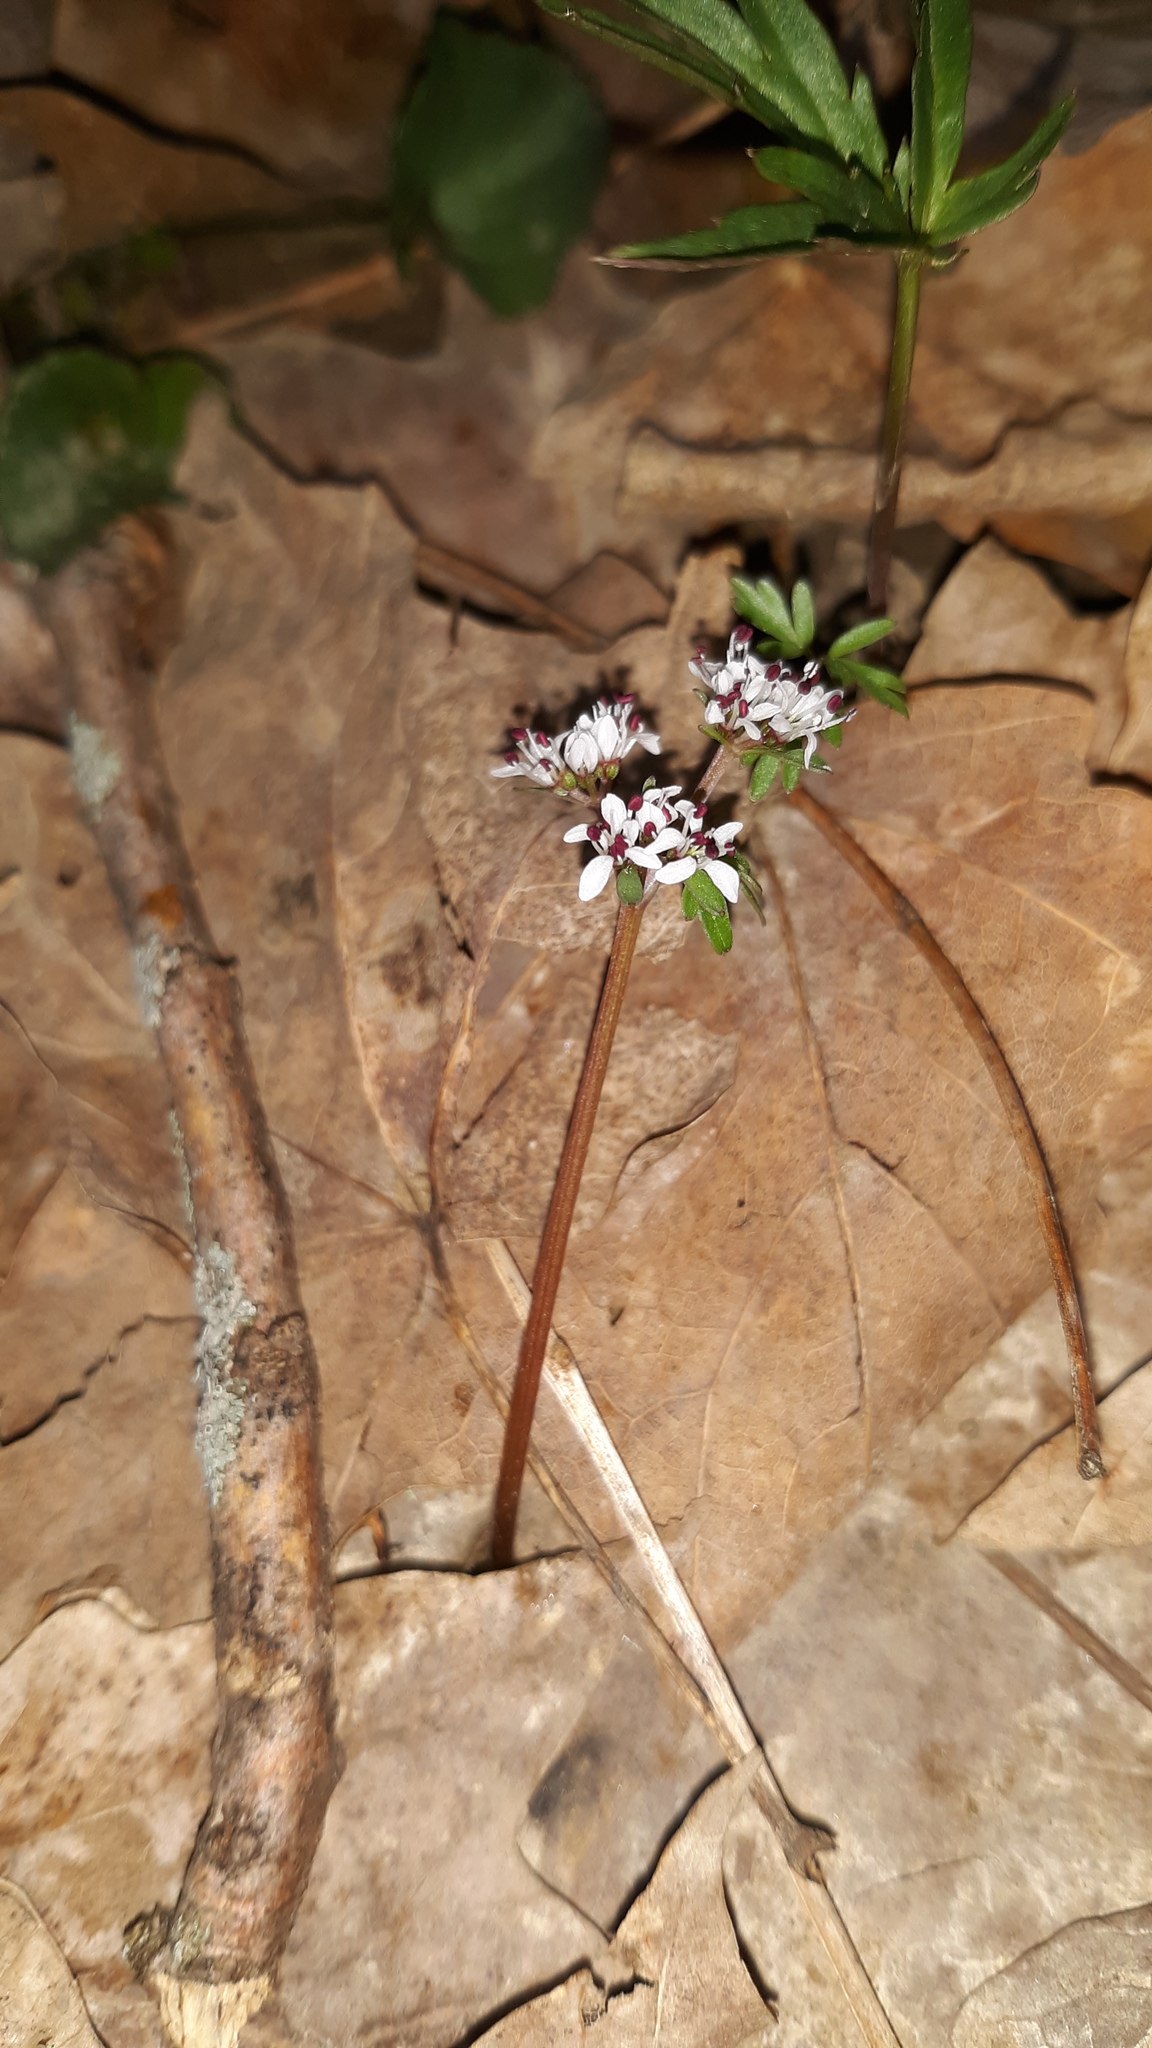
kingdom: Plantae
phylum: Tracheophyta
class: Magnoliopsida
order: Apiales
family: Apiaceae
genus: Erigenia
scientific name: Erigenia bulbosa
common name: Pepper-and-salt
